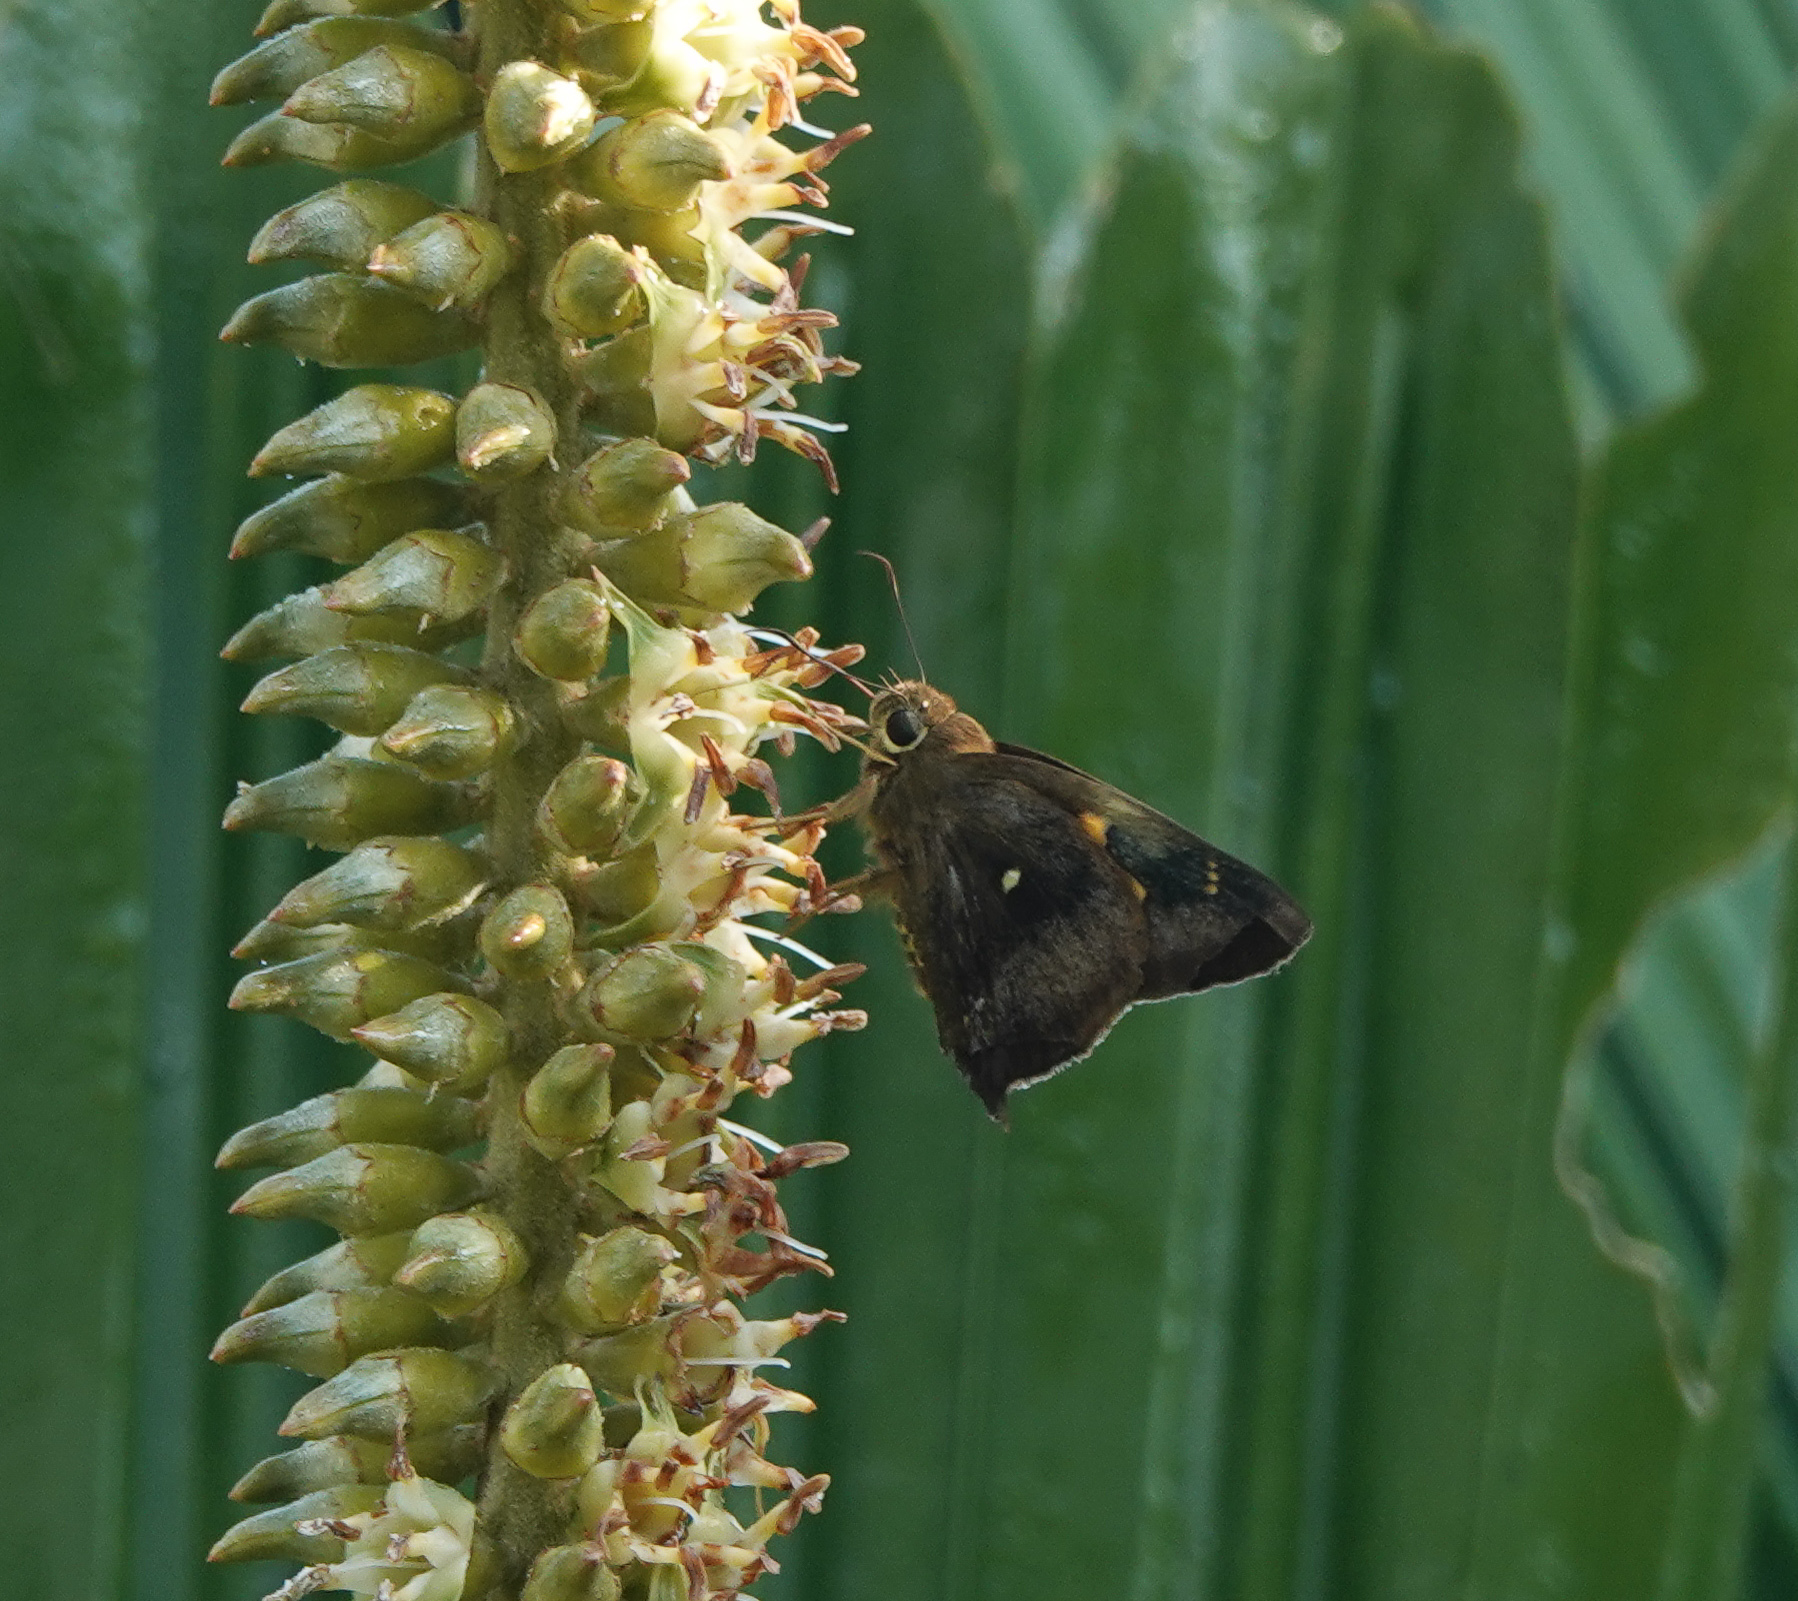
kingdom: Animalia
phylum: Arthropoda
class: Insecta
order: Lepidoptera
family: Hesperiidae
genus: Hasora
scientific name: Hasora badra
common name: Common awl
